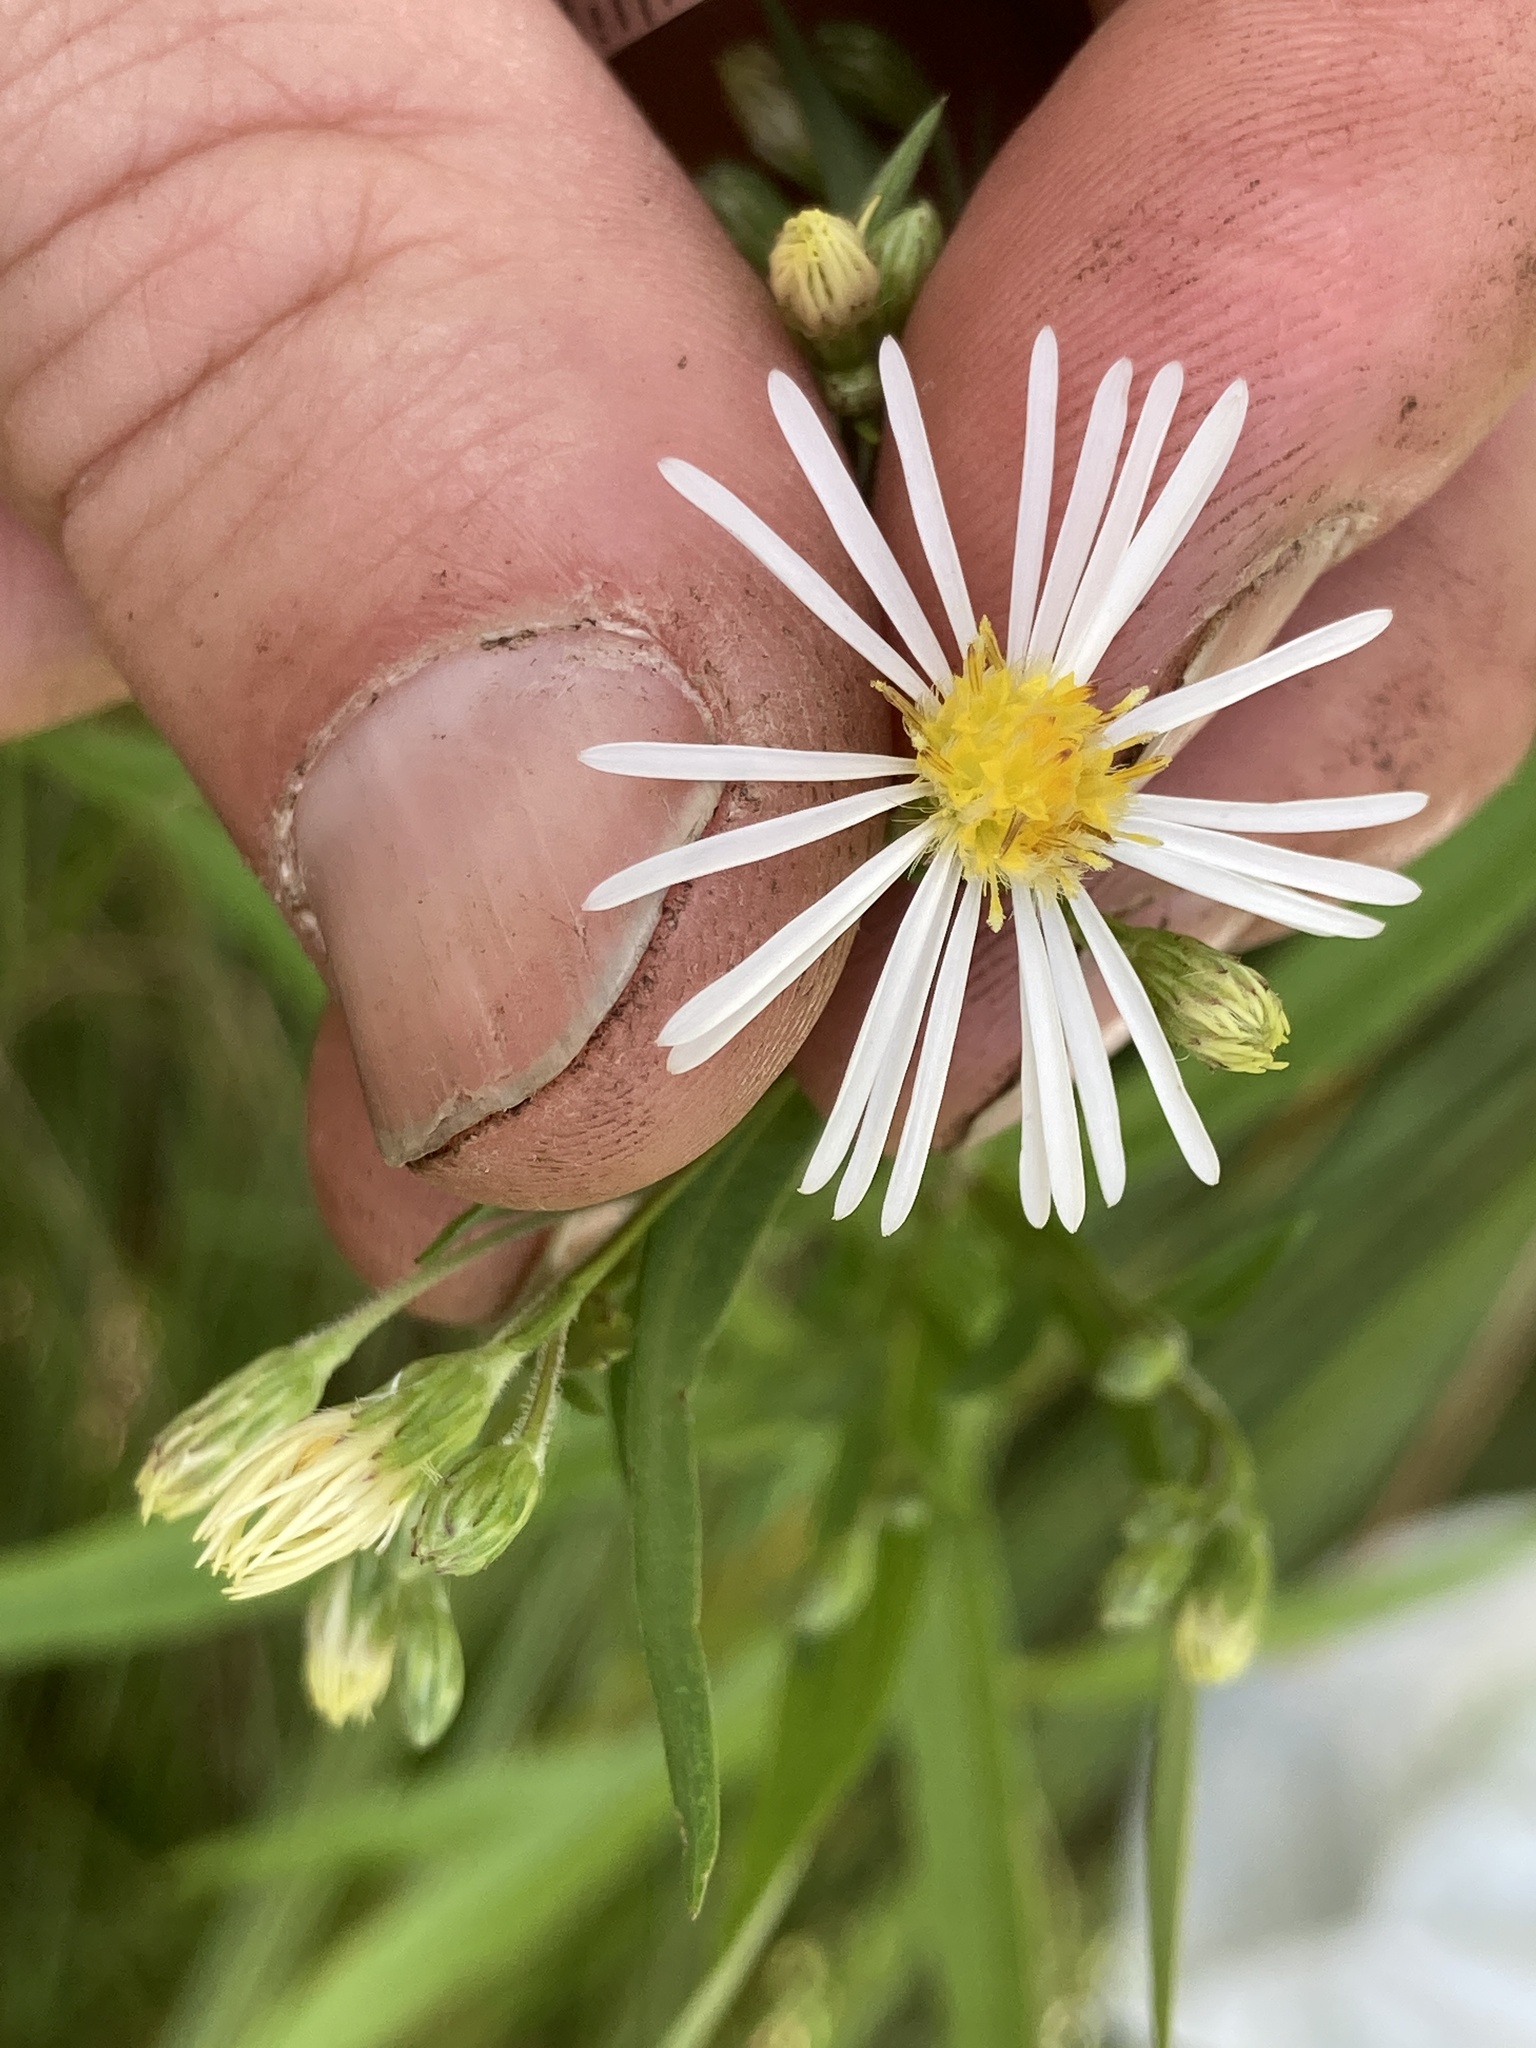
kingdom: Plantae
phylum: Tracheophyta
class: Magnoliopsida
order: Asterales
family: Asteraceae
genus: Symphyotrichum
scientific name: Symphyotrichum lanceolatum
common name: Panicled aster
